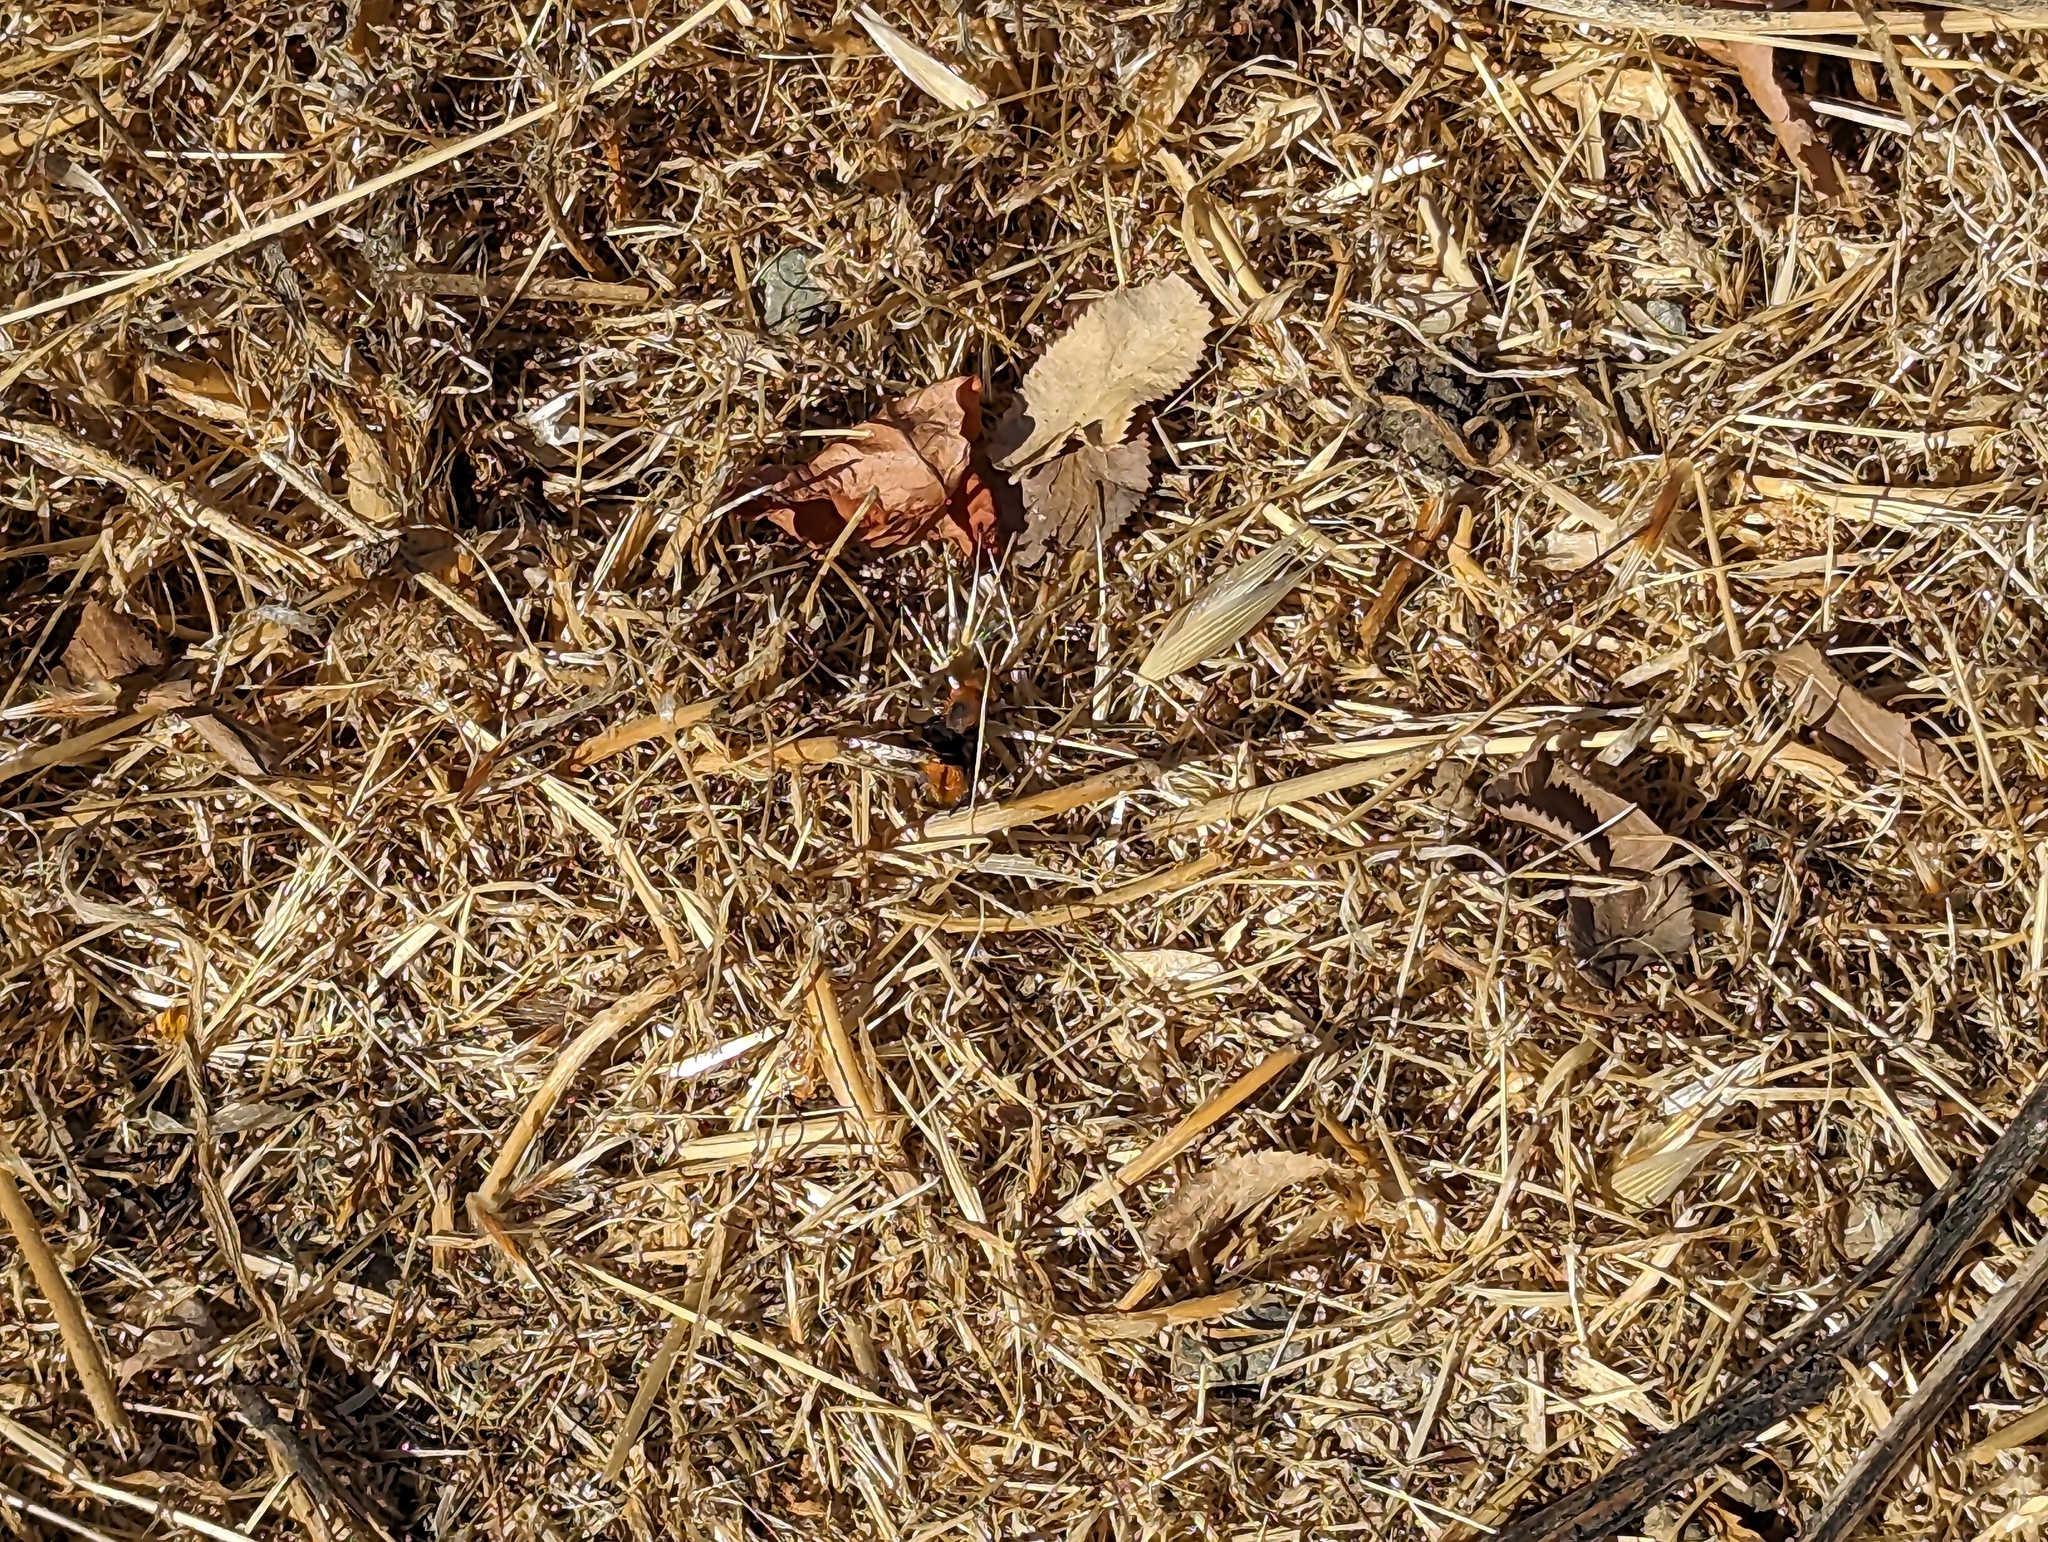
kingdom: Animalia
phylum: Arthropoda
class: Insecta
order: Hymenoptera
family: Mutillidae
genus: Dasymutilla
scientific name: Dasymutilla
